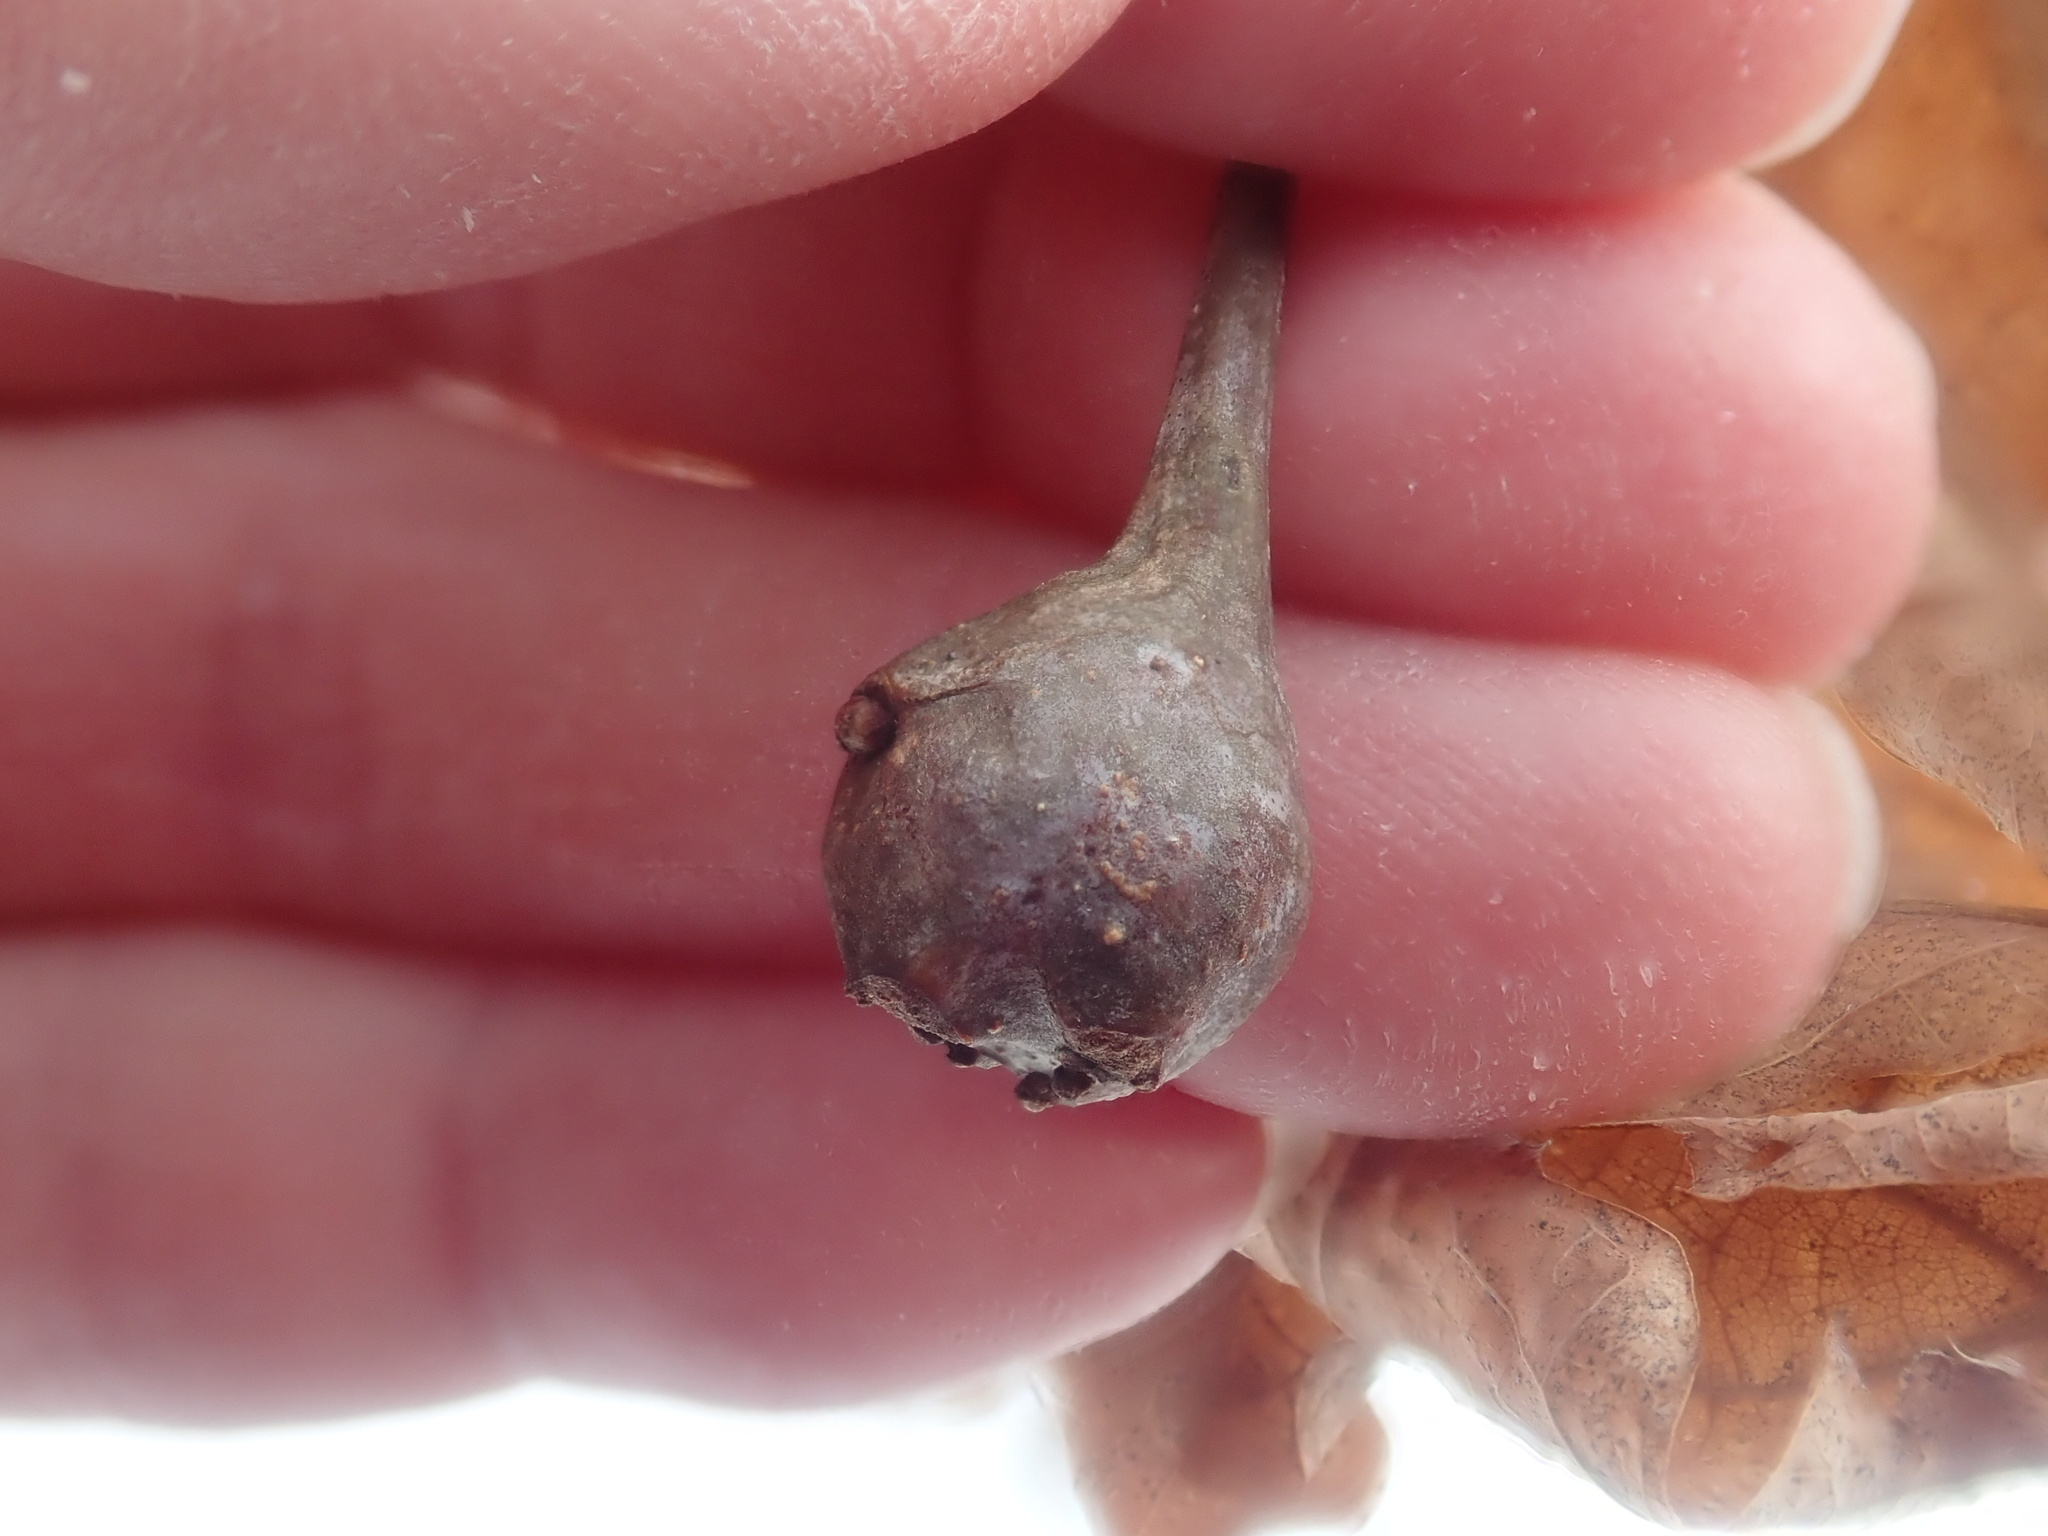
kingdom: Animalia
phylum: Arthropoda
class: Insecta
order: Hymenoptera
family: Cynipidae
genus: Callirhytis
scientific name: Callirhytis clavula
